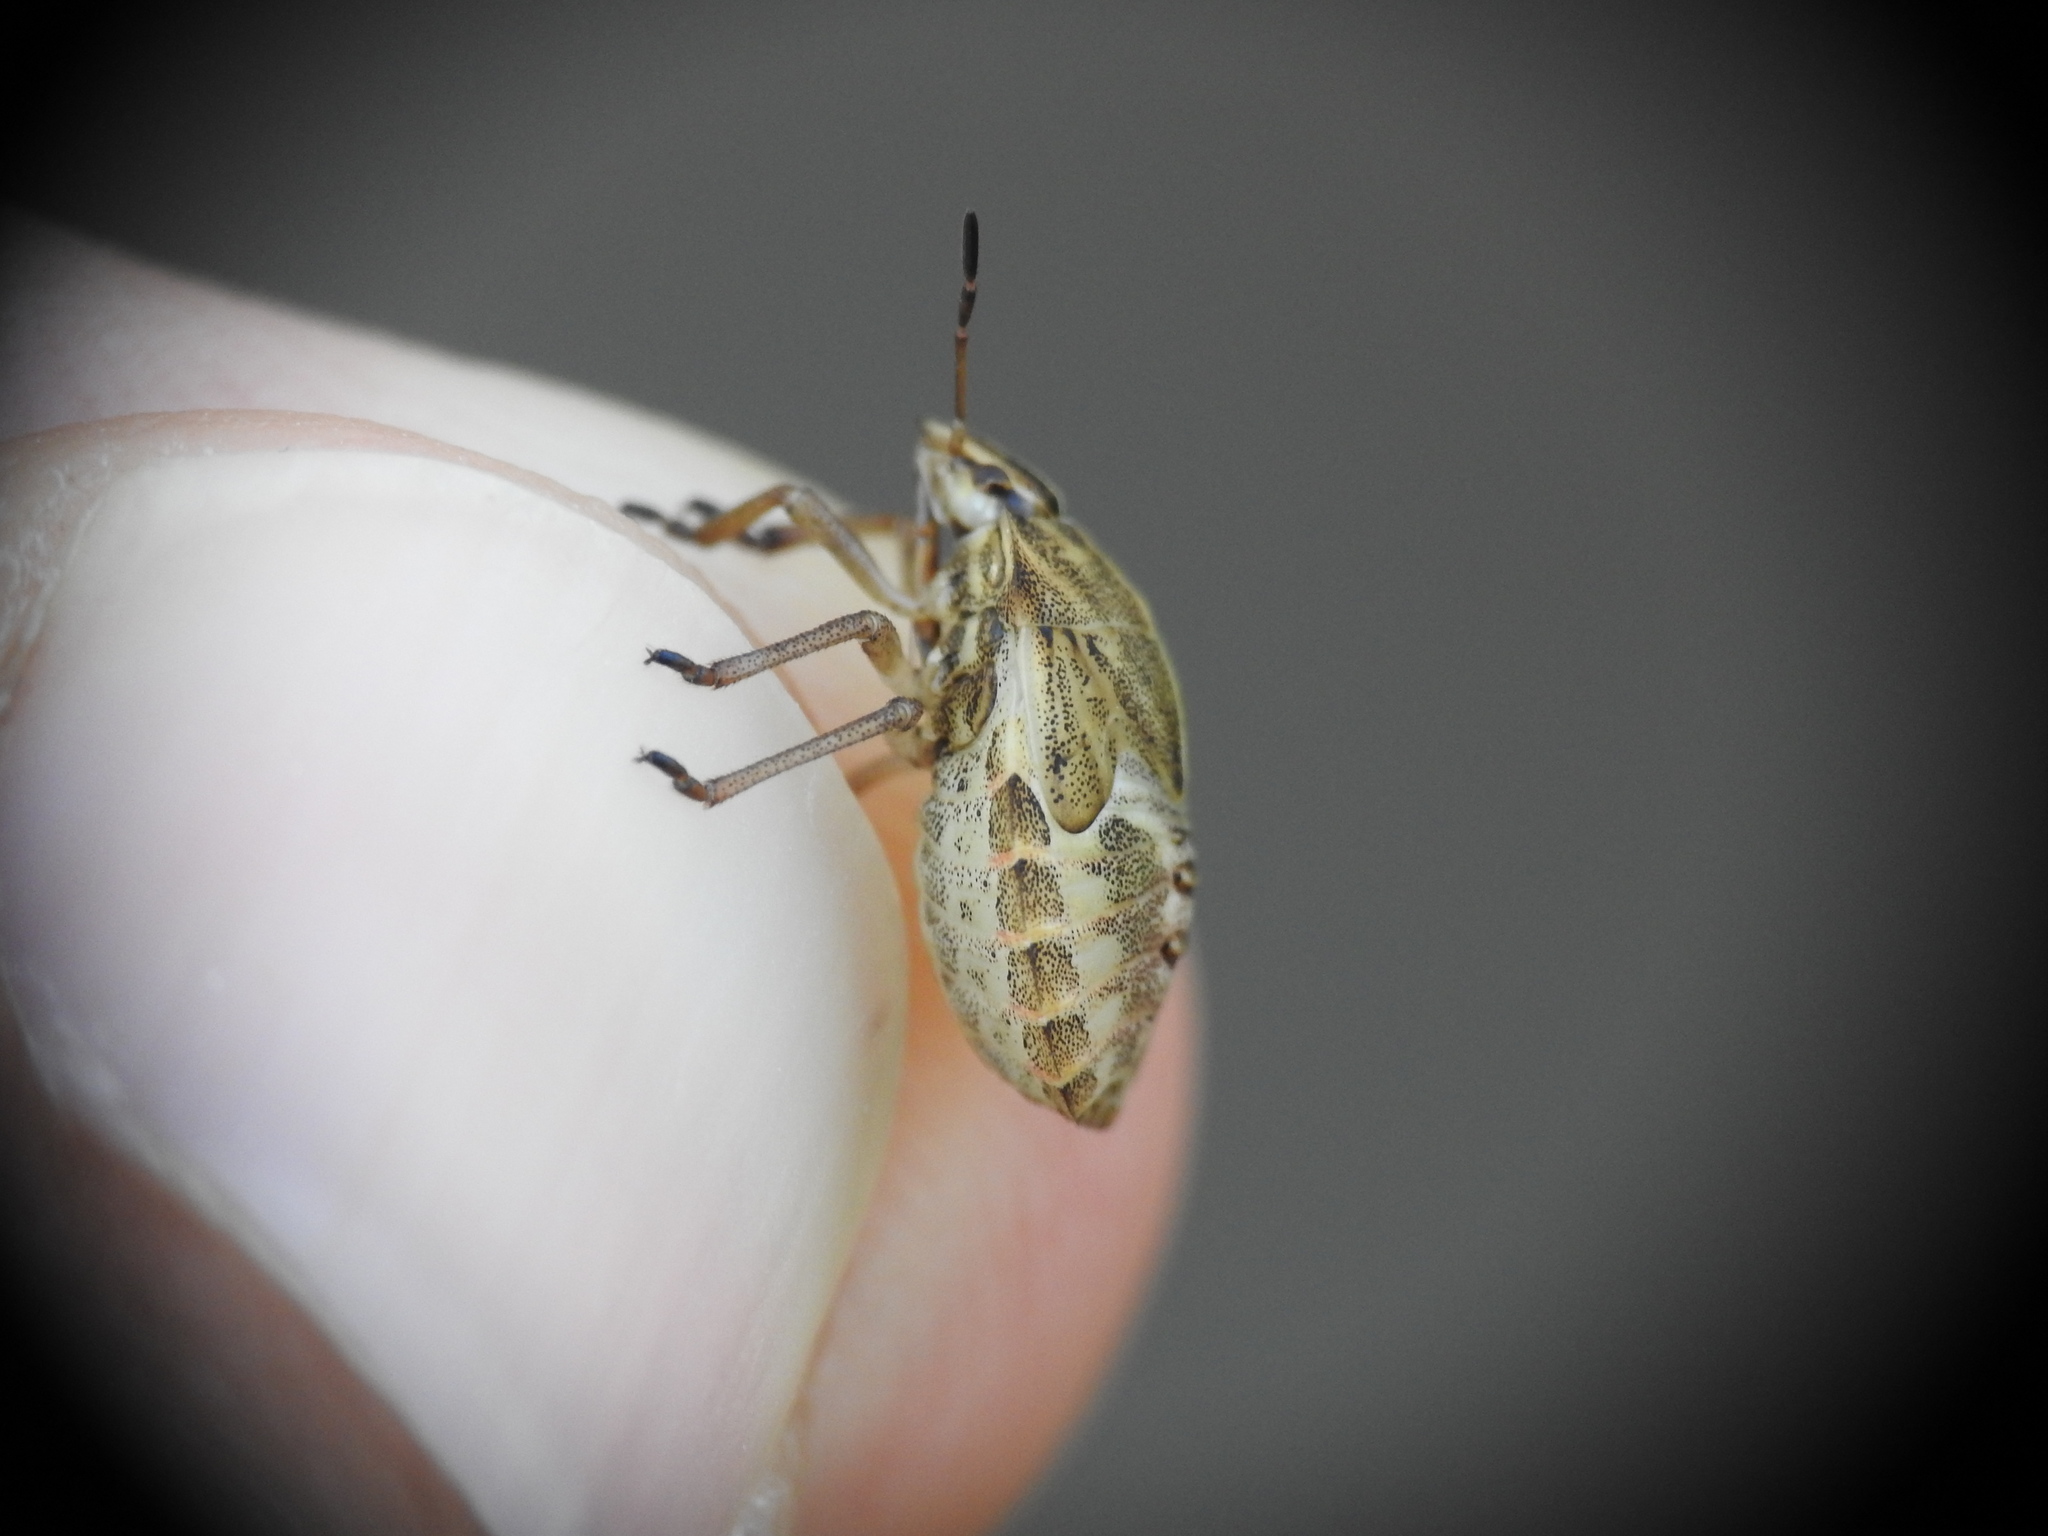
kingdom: Animalia
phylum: Arthropoda
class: Insecta
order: Hemiptera
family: Pentatomidae
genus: Graphosoma
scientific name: Graphosoma italicum
